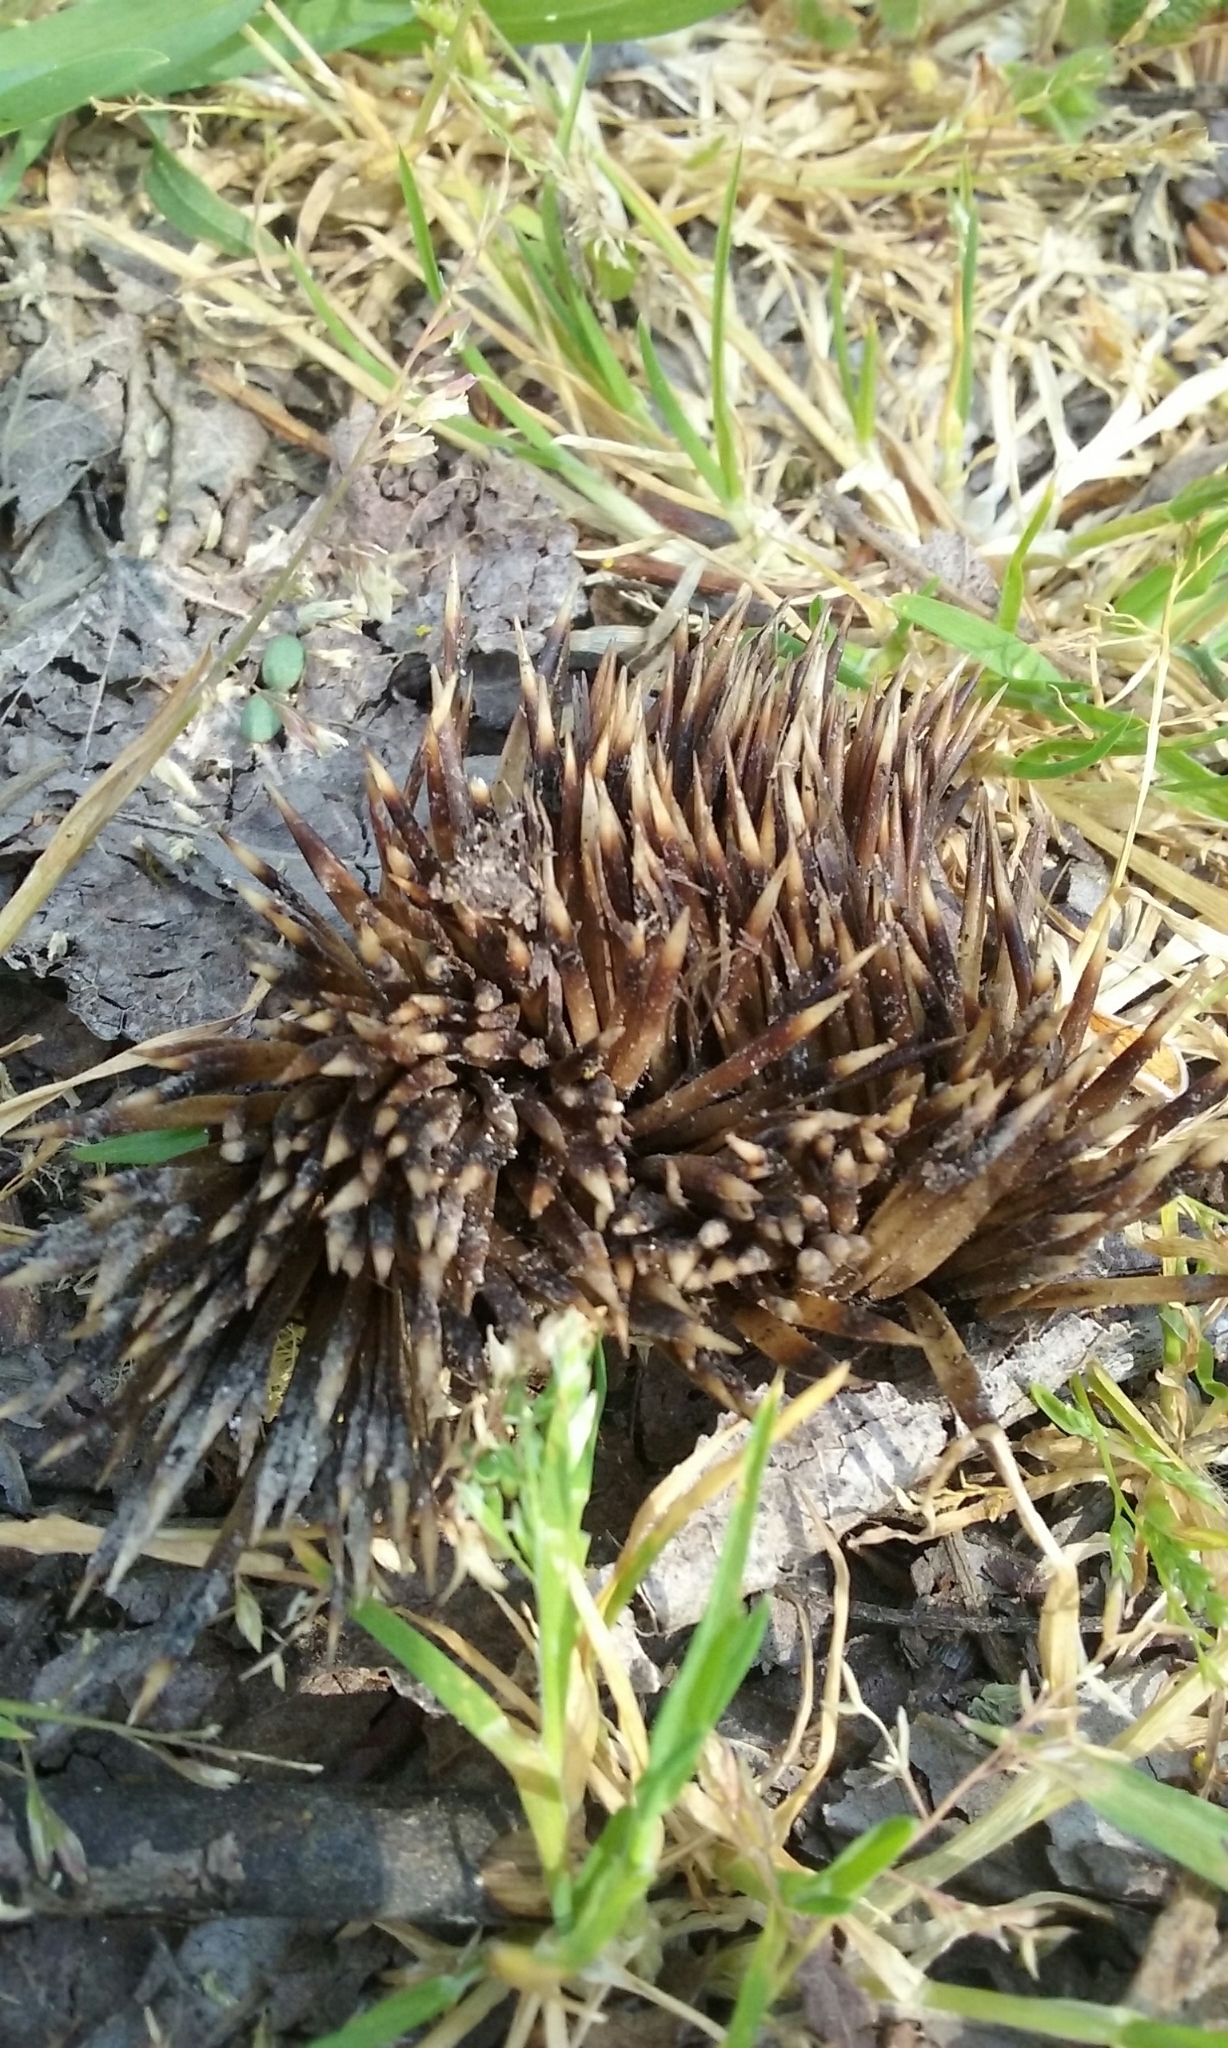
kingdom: Animalia
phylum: Chordata
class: Mammalia
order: Erinaceomorpha
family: Erinaceidae
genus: Erinaceus
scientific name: Erinaceus europaeus
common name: West european hedgehog
